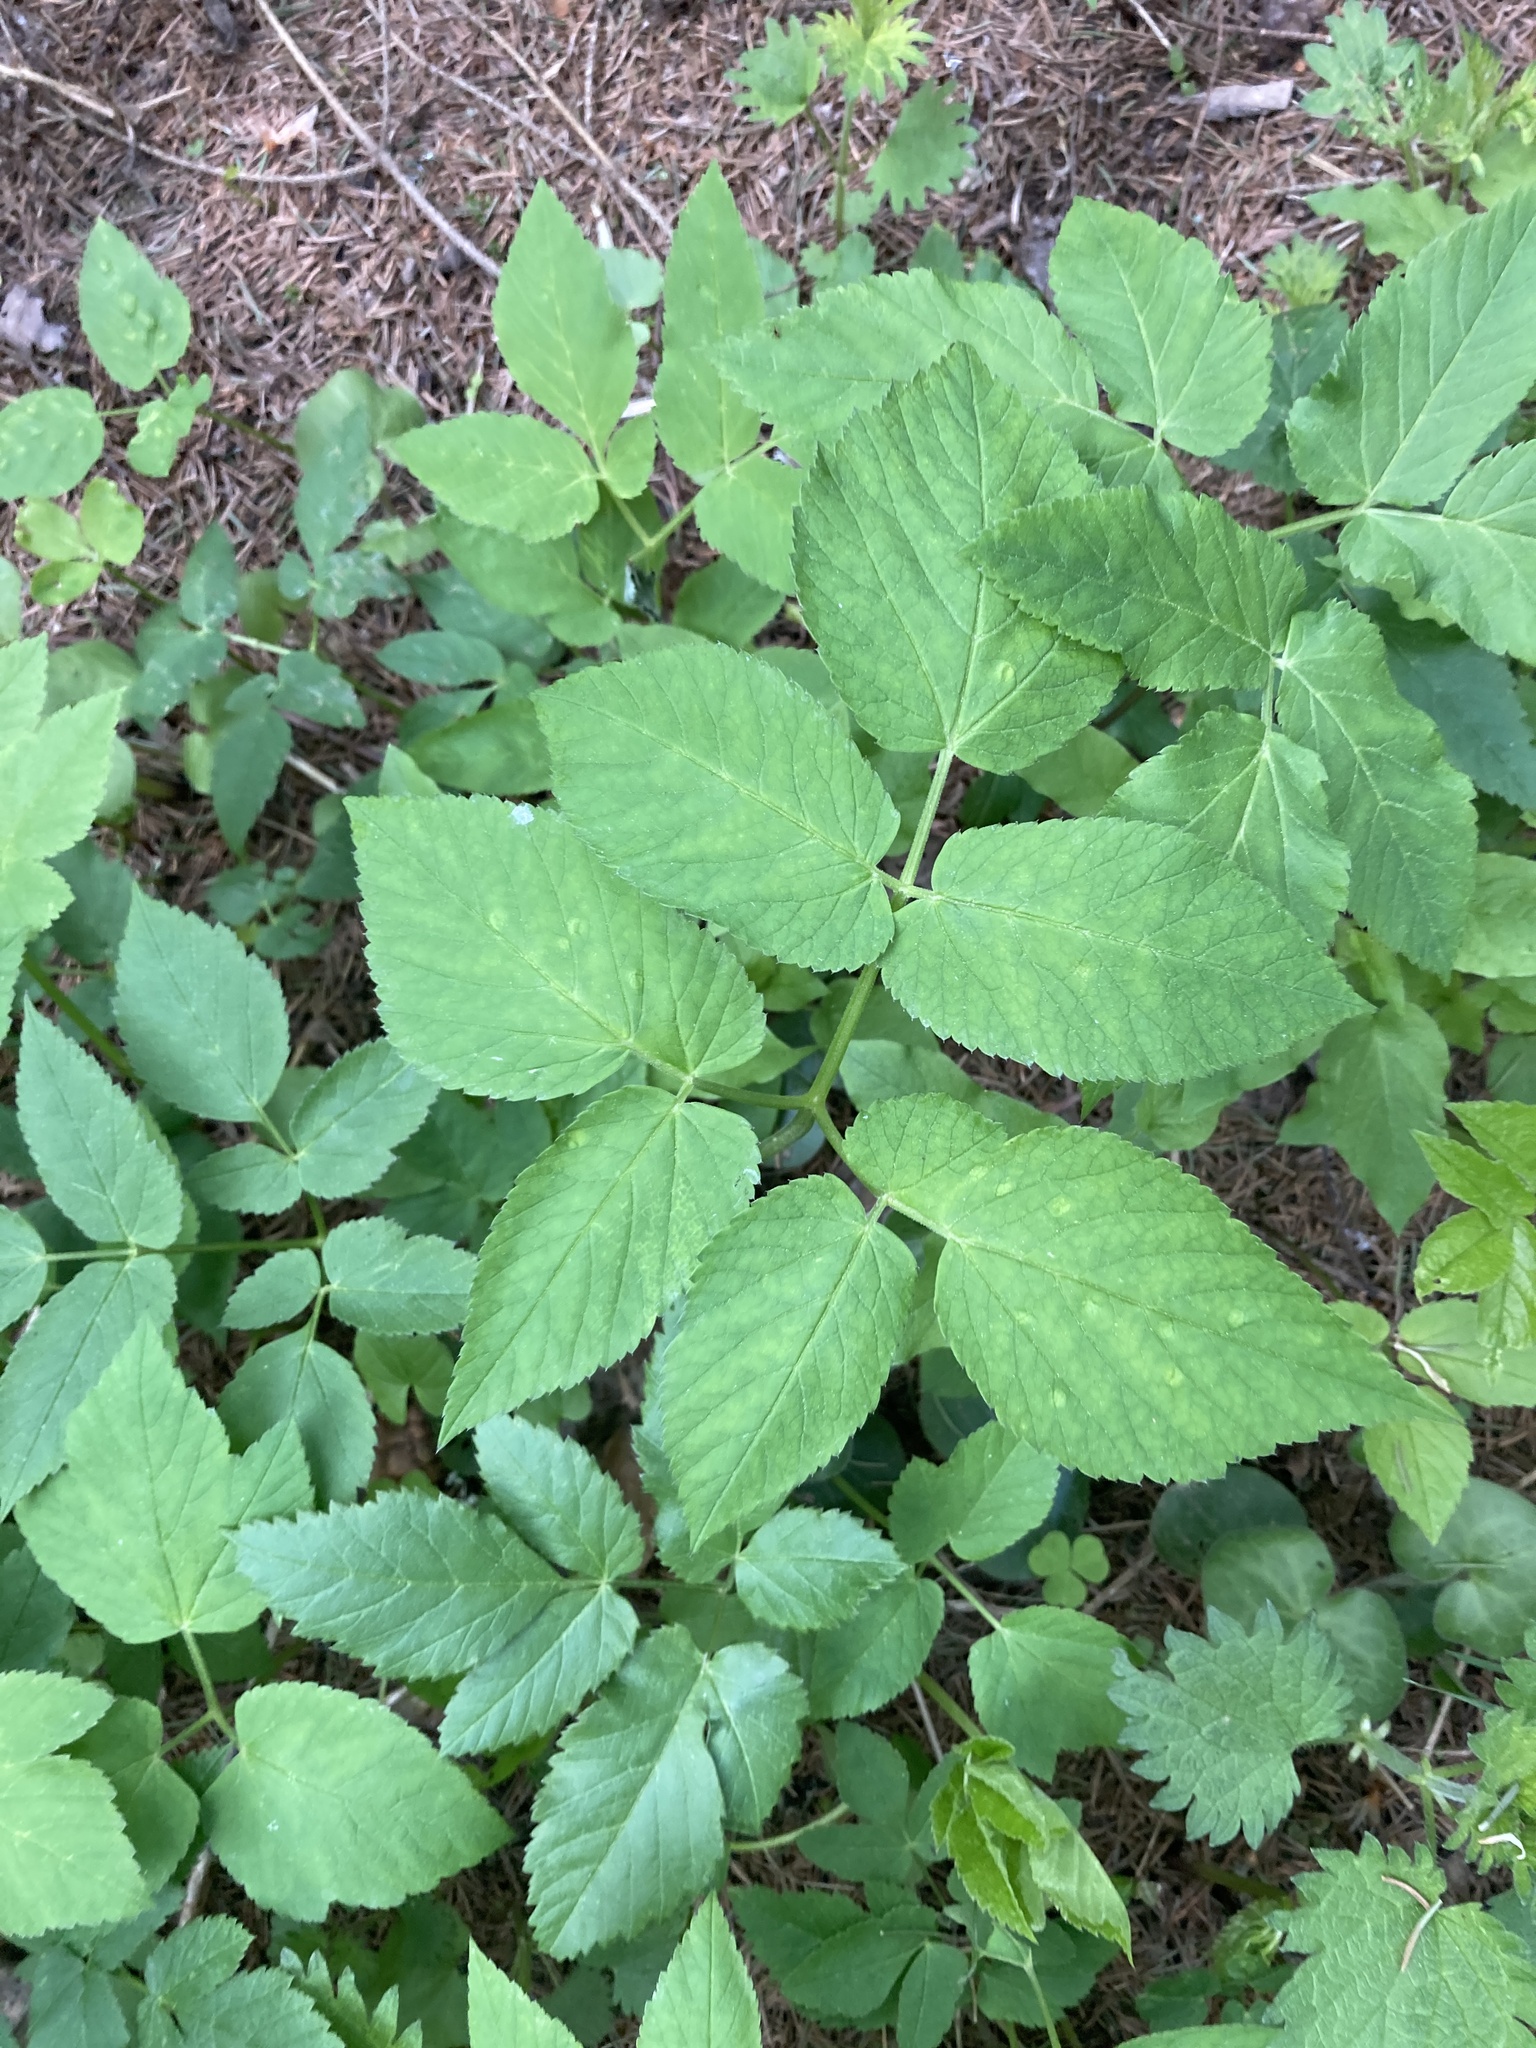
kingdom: Plantae
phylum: Tracheophyta
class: Magnoliopsida
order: Apiales
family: Apiaceae
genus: Aegopodium
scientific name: Aegopodium podagraria
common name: Ground-elder
